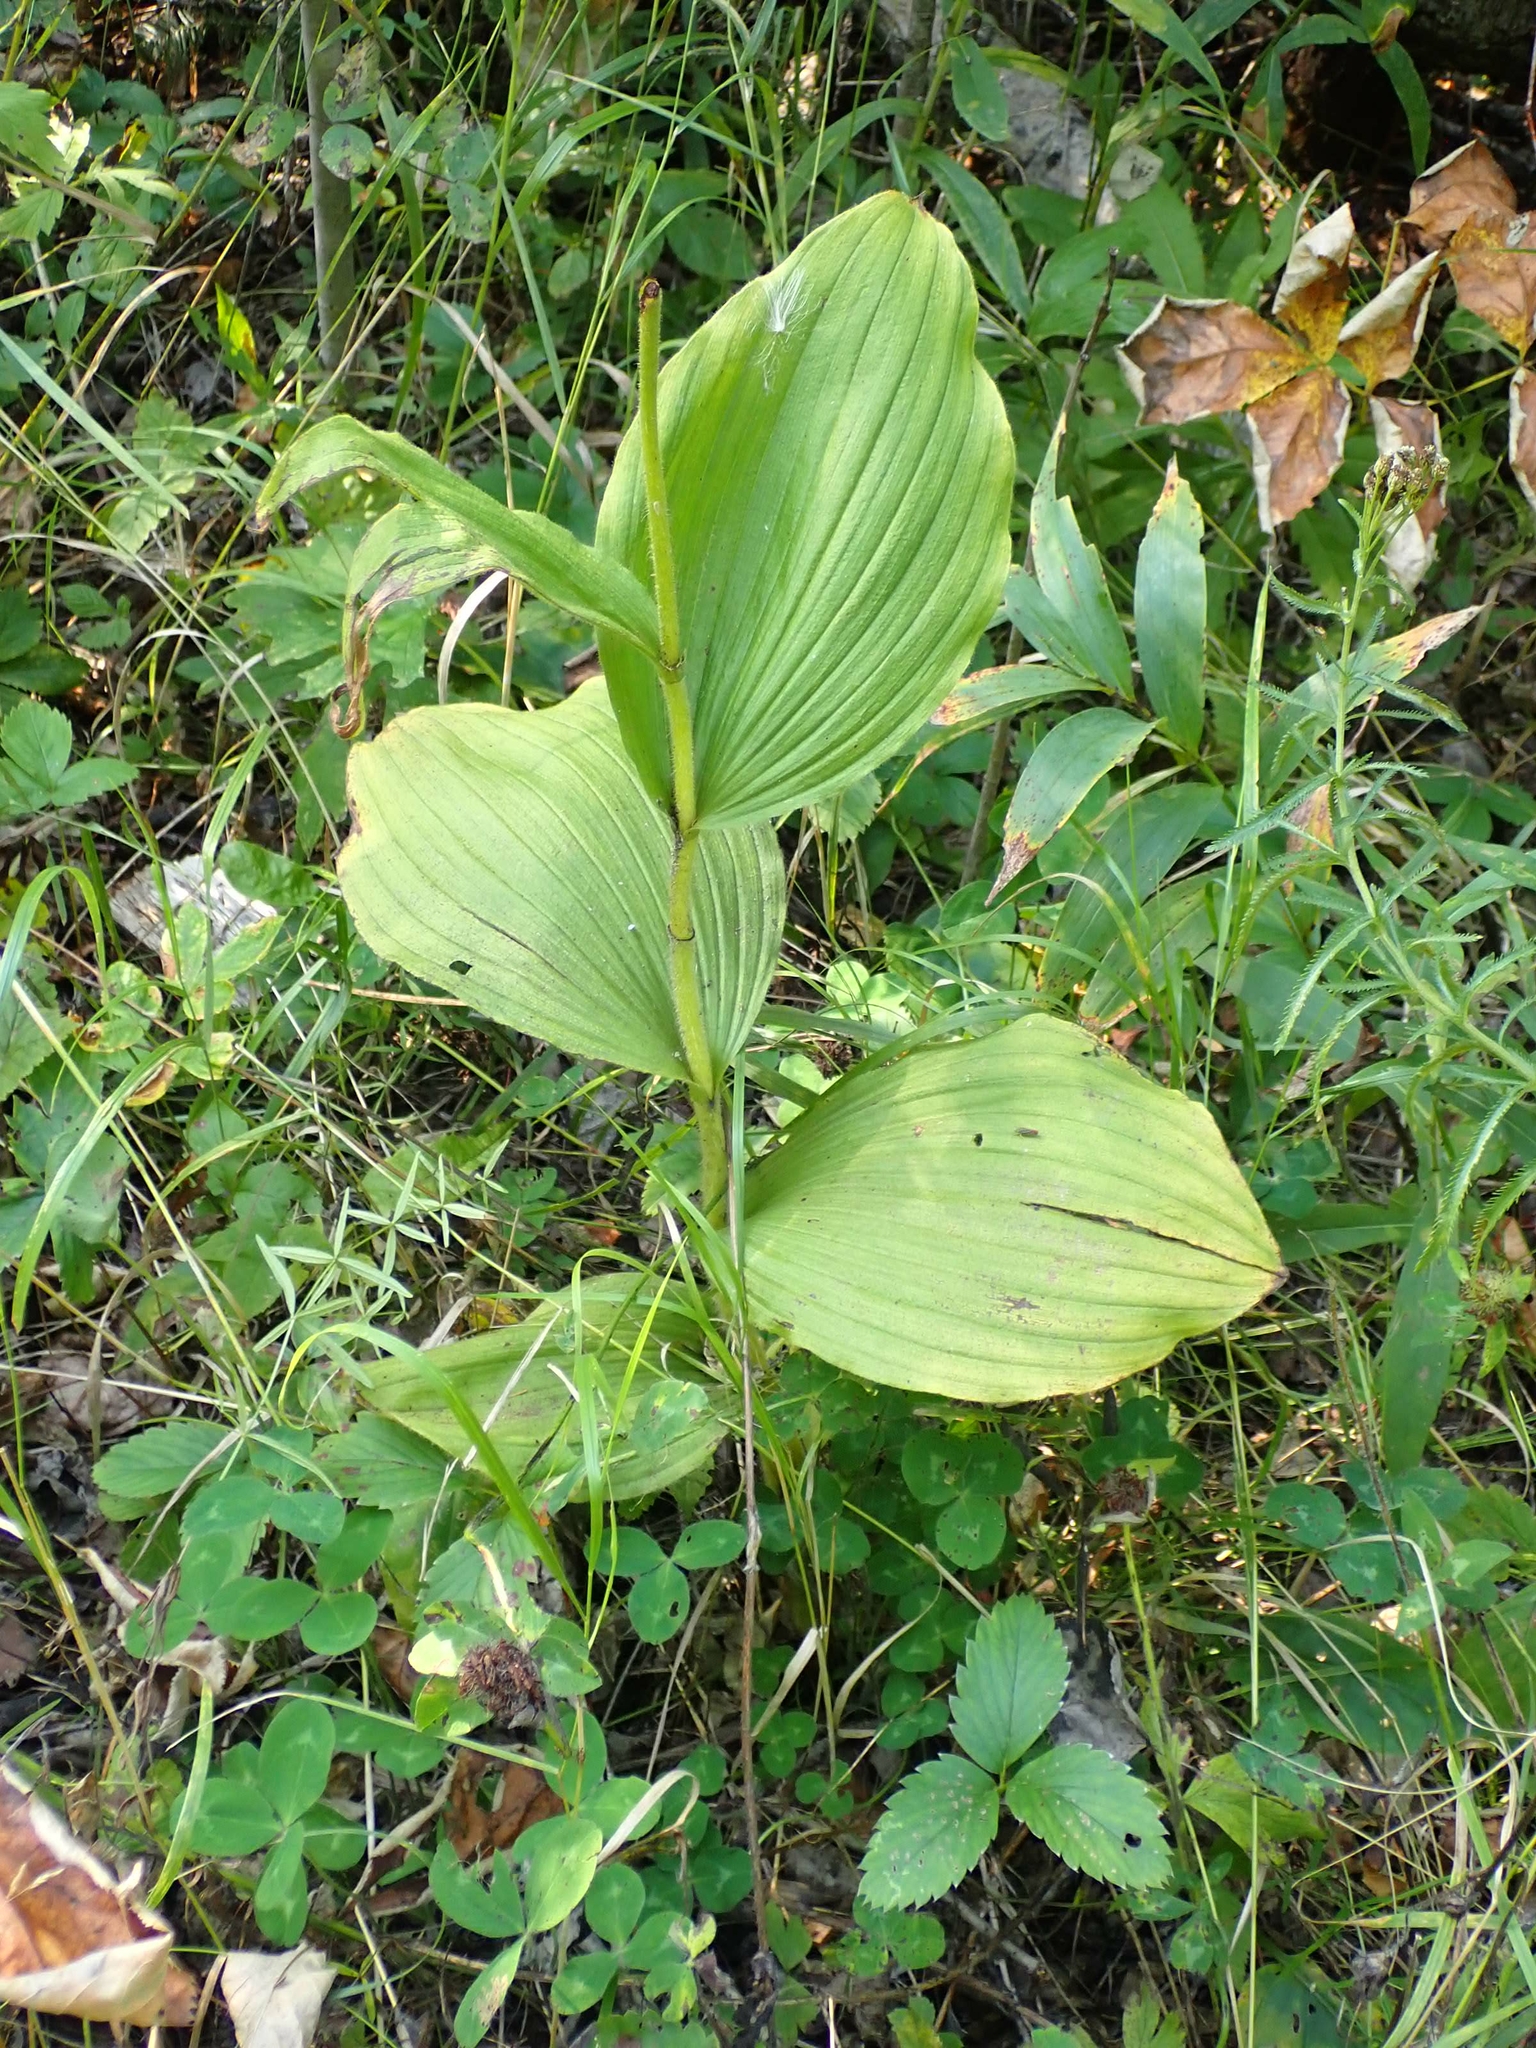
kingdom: Plantae
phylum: Tracheophyta
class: Liliopsida
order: Asparagales
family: Orchidaceae
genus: Cypripedium
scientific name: Cypripedium reginae
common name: Queen lady's-slipper
